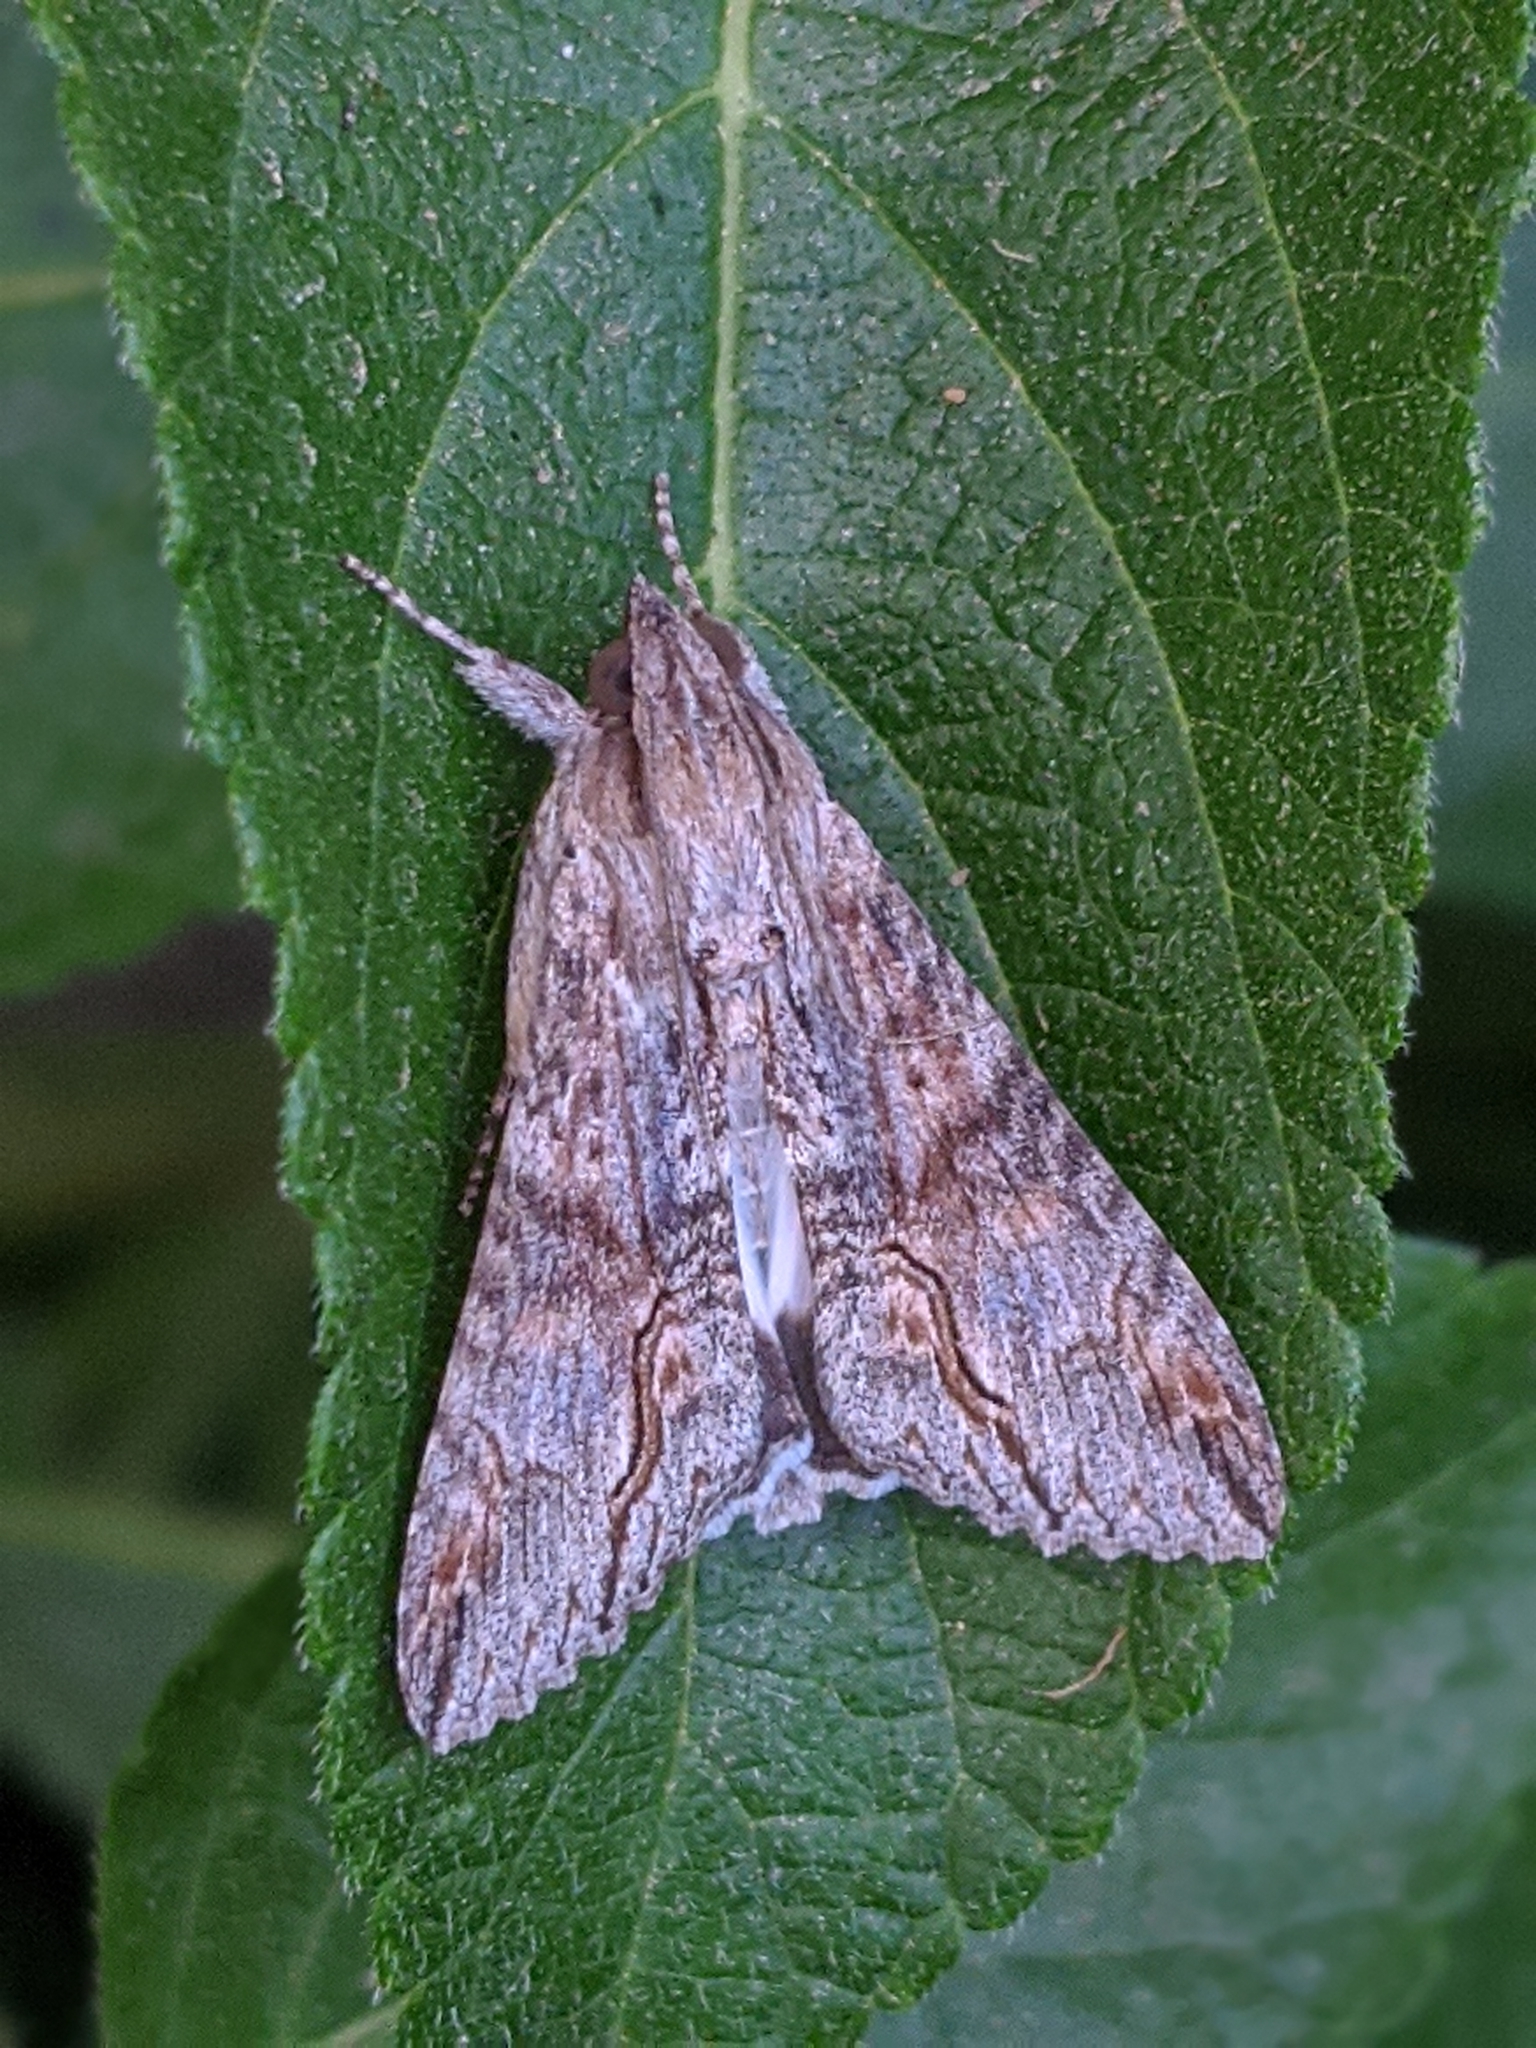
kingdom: Animalia
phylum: Arthropoda
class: Insecta
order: Lepidoptera
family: Erebidae
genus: Melipotis
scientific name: Melipotis acontioides
